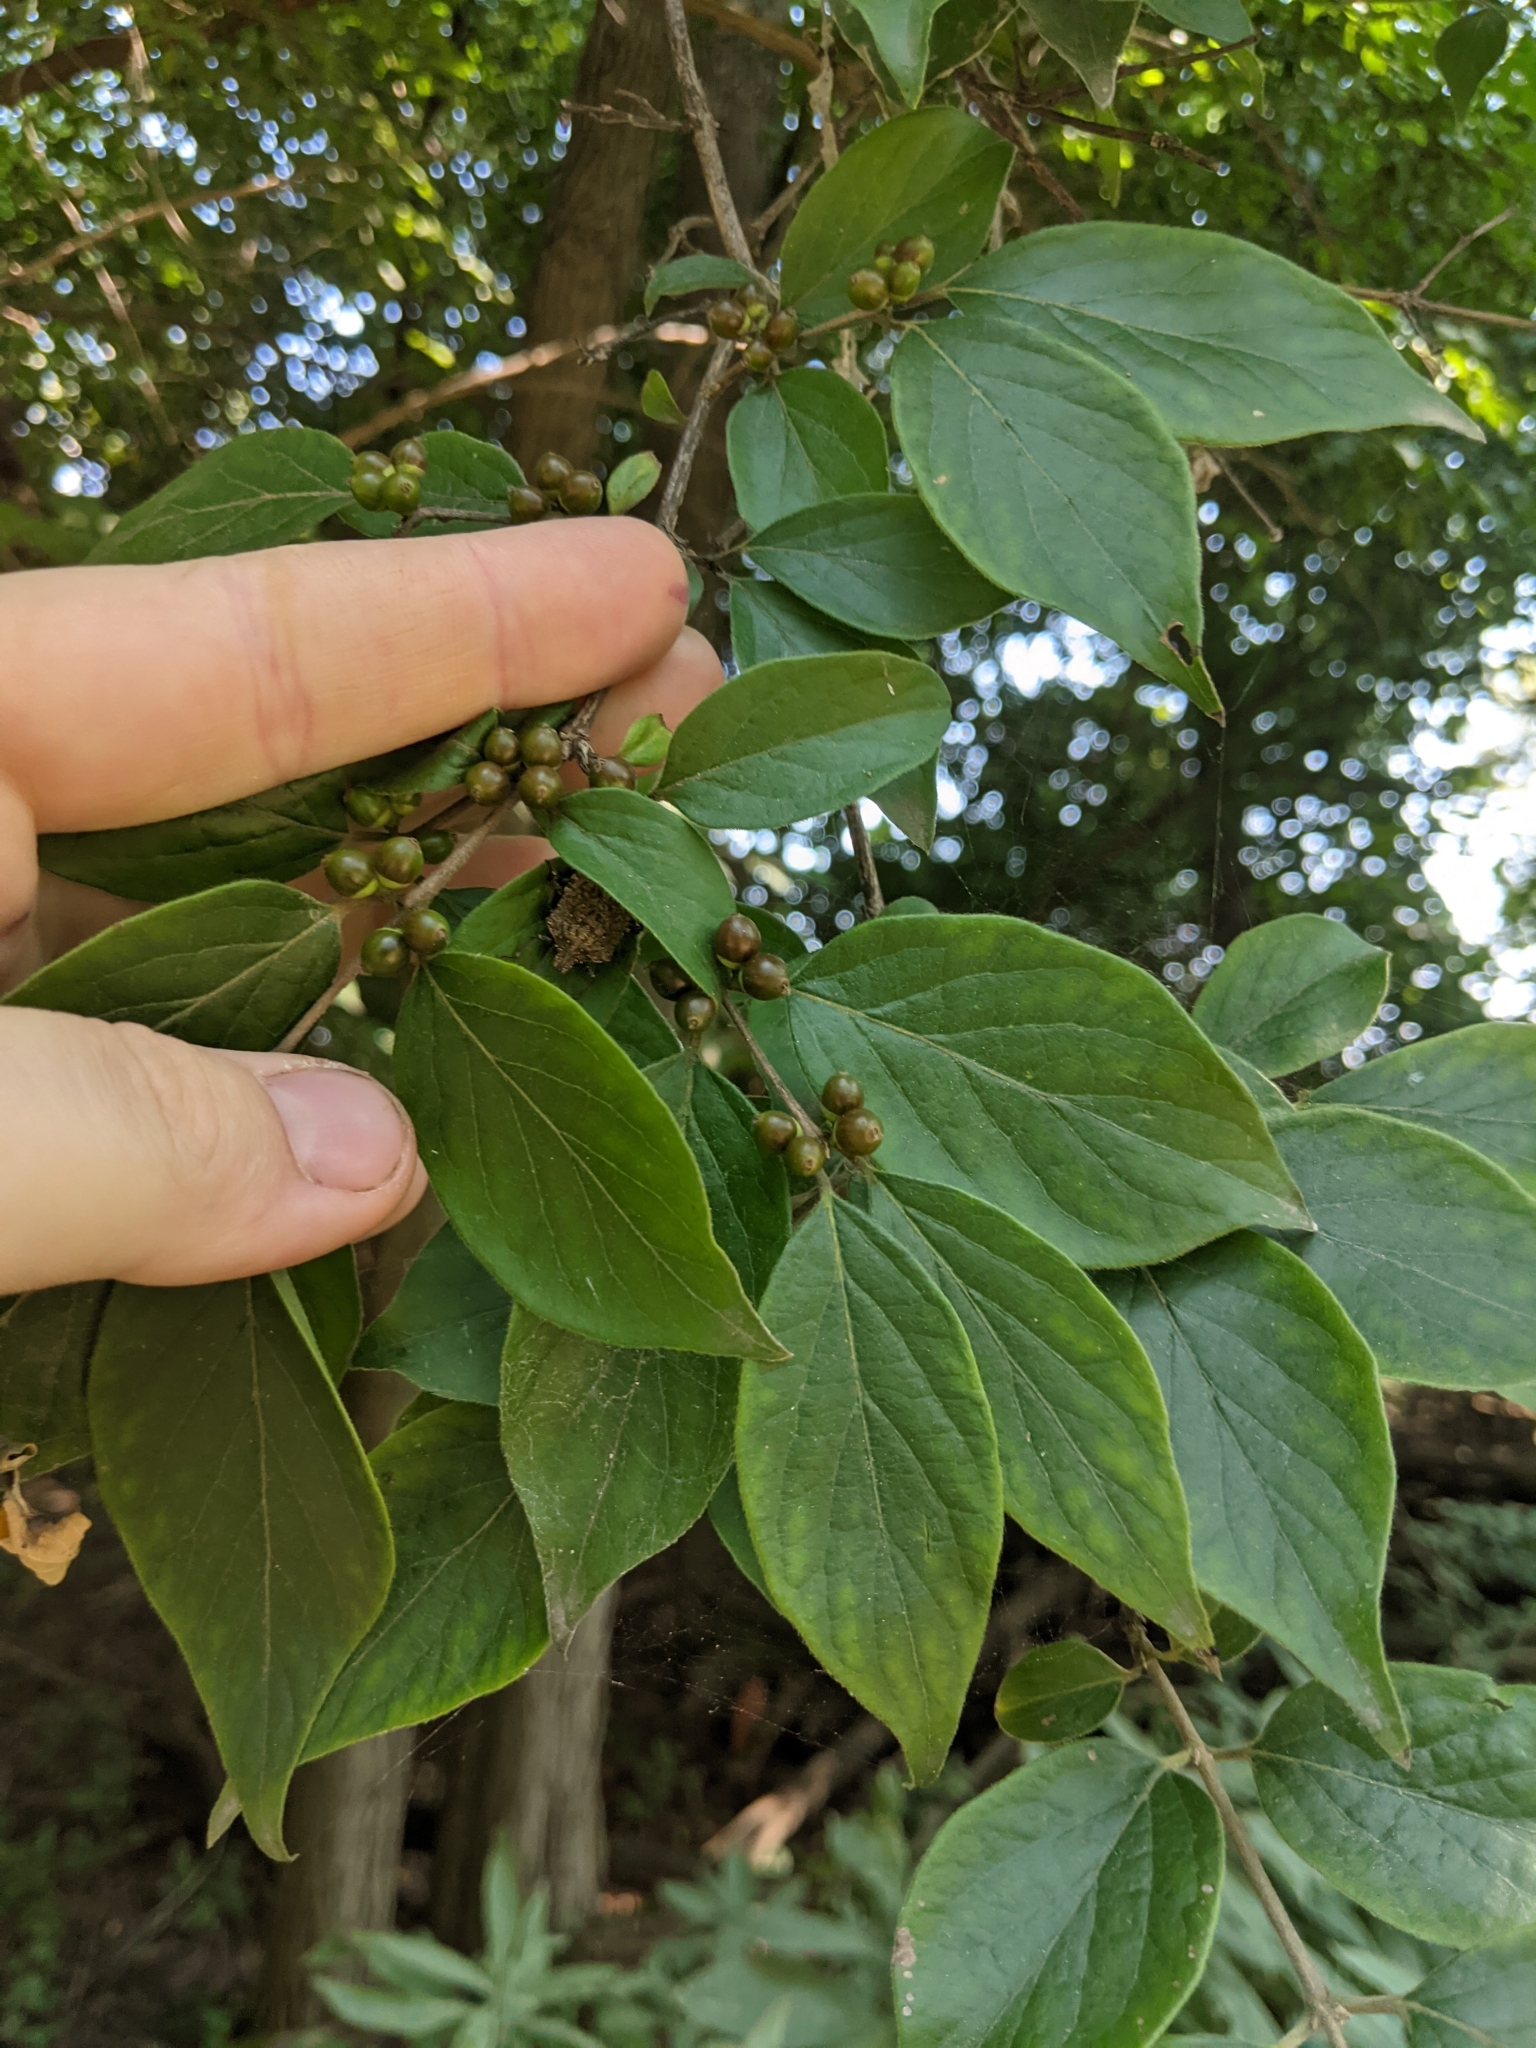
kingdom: Animalia
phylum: Arthropoda
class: Insecta
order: Hemiptera
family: Pentatomidae
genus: Halyomorpha
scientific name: Halyomorpha halys
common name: Brown marmorated stink bug
